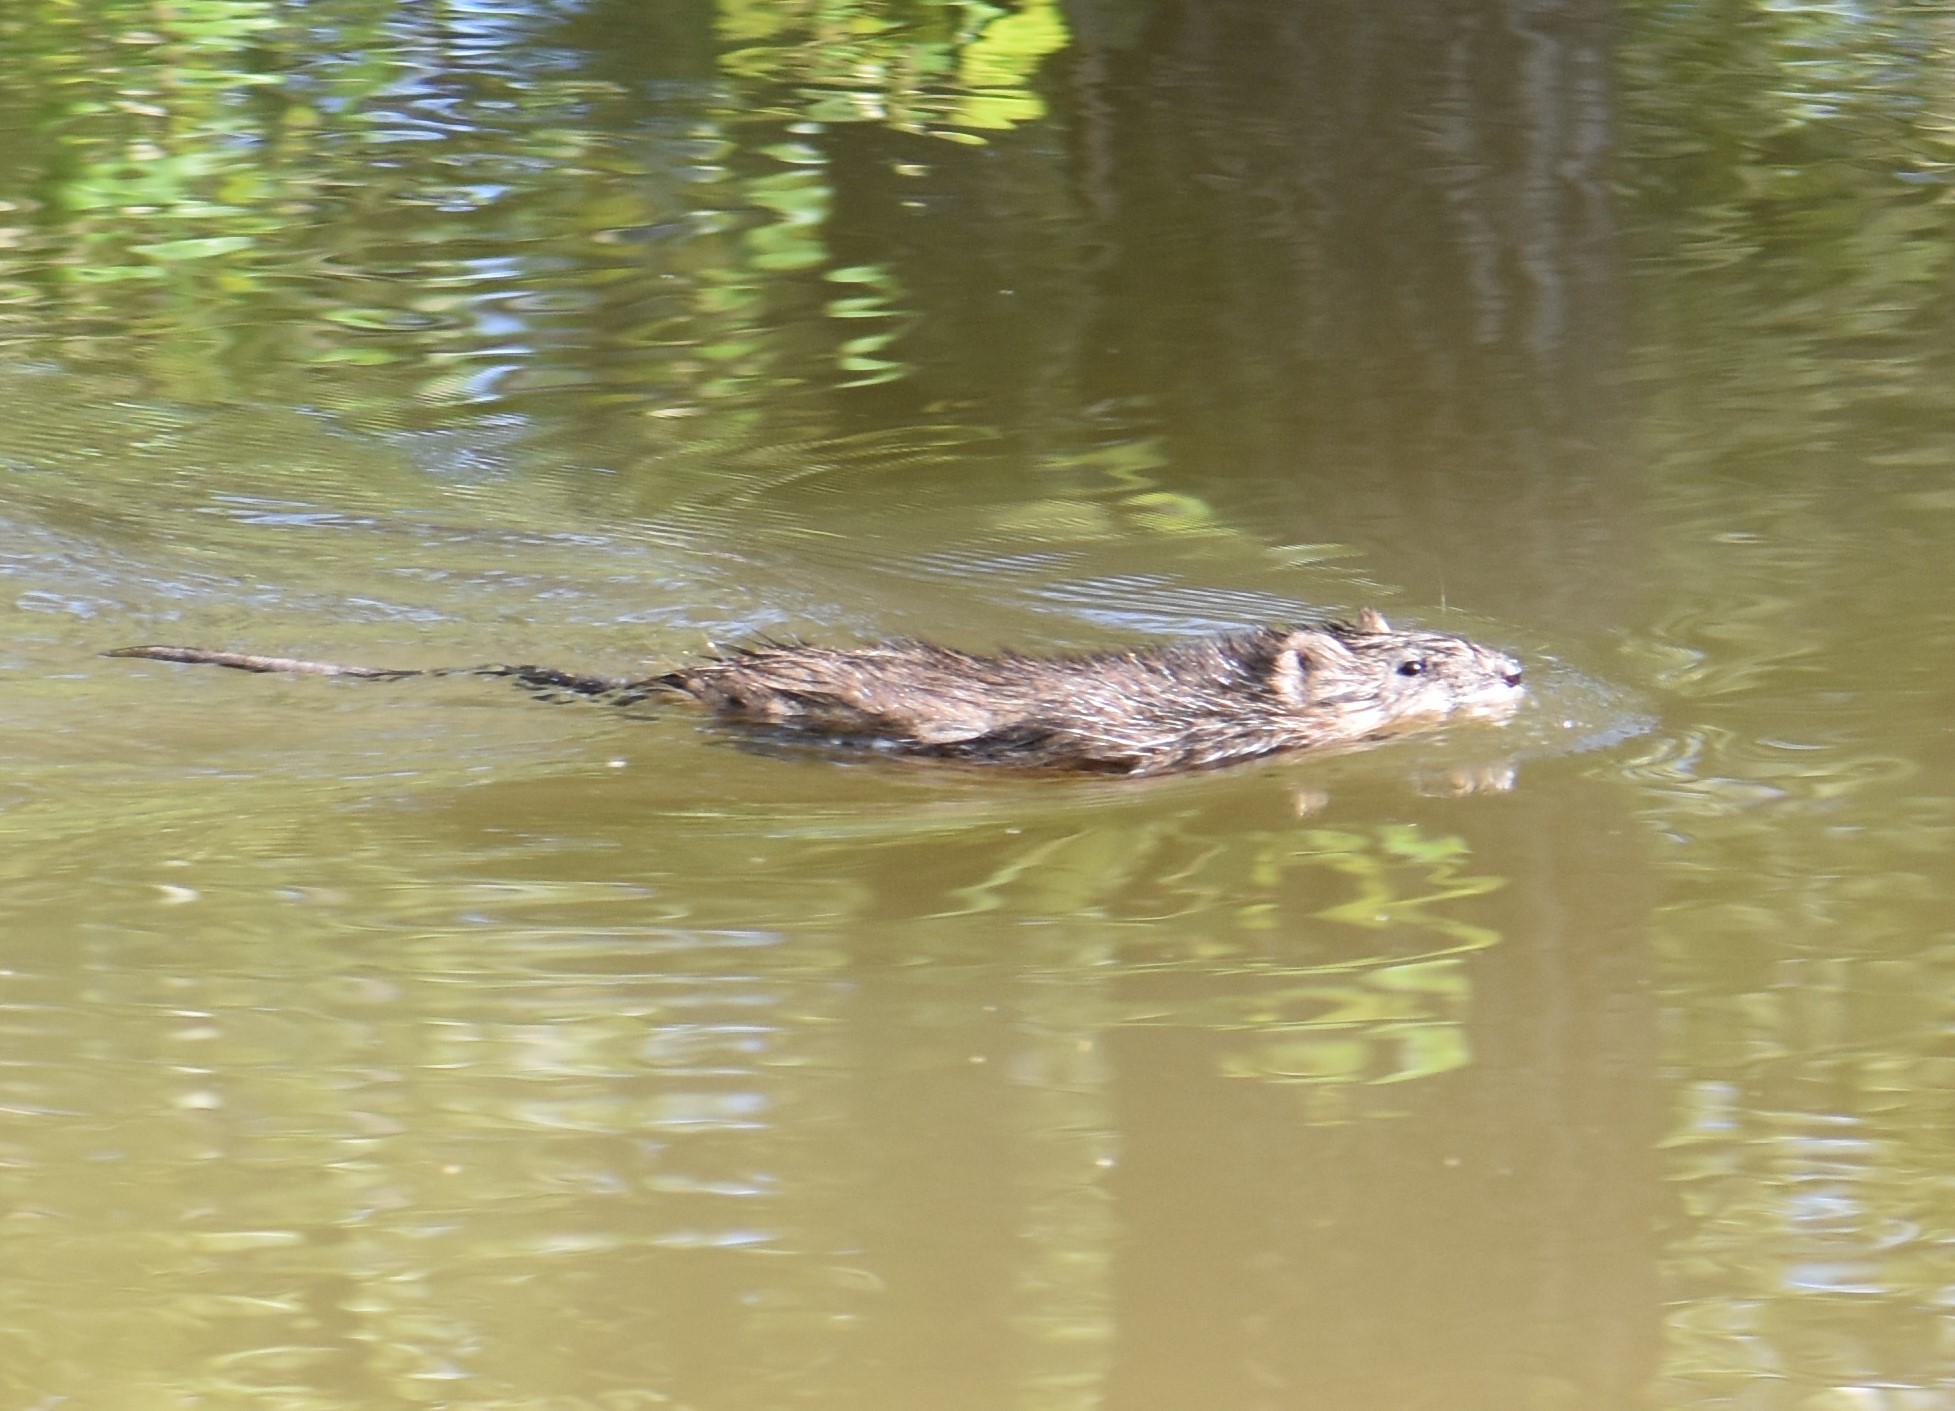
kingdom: Animalia
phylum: Chordata
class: Mammalia
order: Rodentia
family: Cricetidae
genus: Ondatra
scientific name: Ondatra zibethicus
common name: Muskrat
